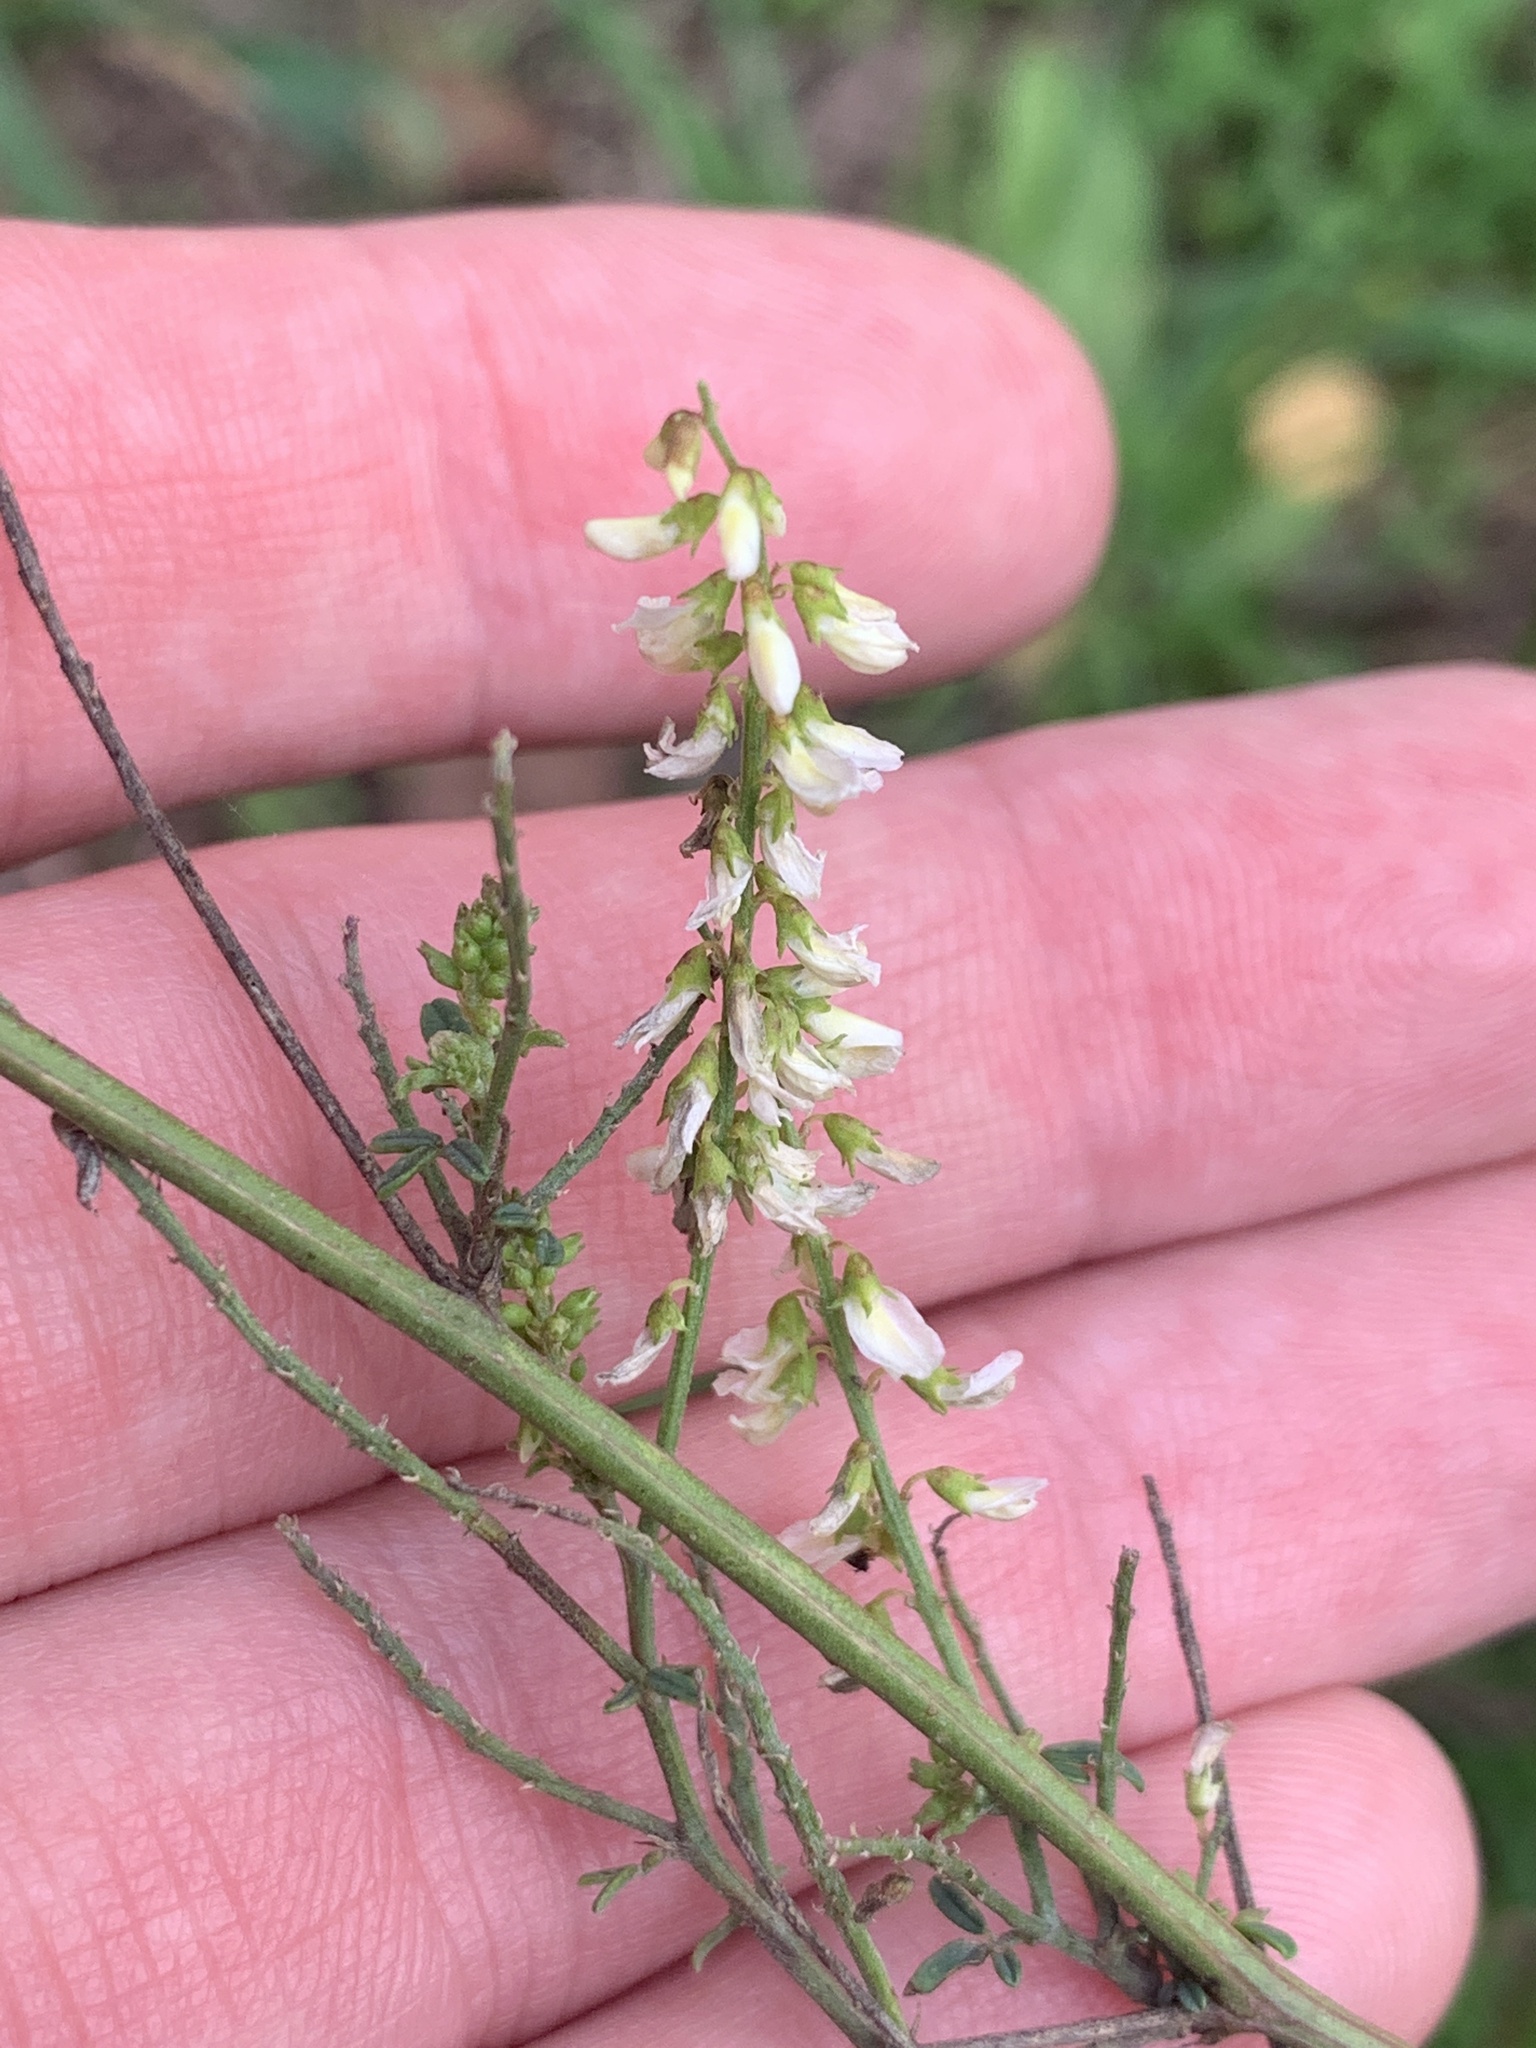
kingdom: Plantae
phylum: Tracheophyta
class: Magnoliopsida
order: Fabales
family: Fabaceae
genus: Melilotus
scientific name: Melilotus albus
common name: White melilot
